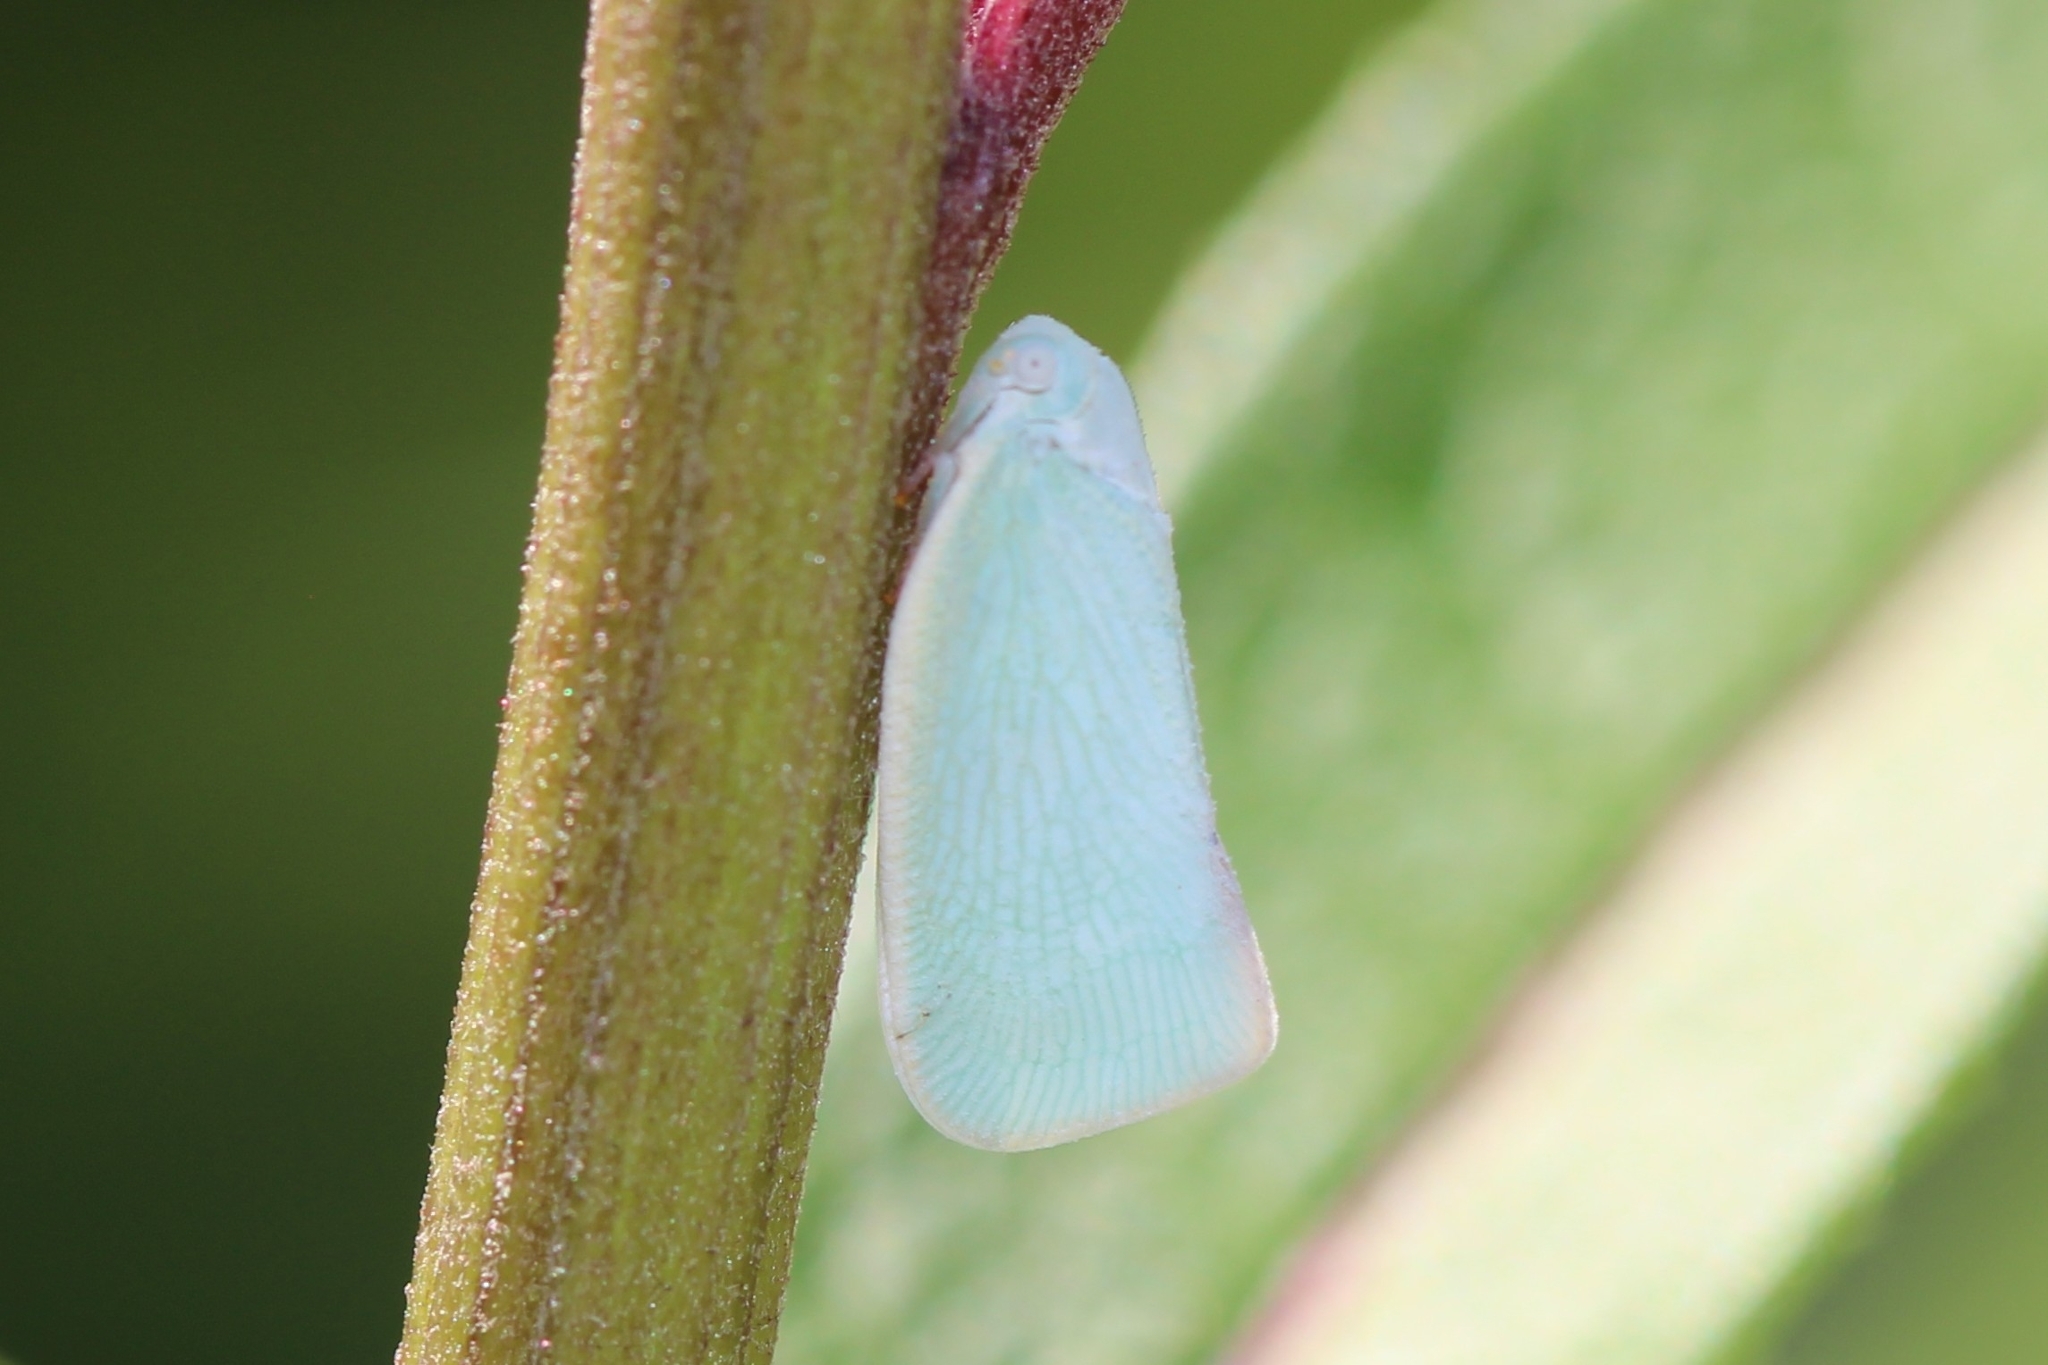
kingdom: Animalia
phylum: Arthropoda
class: Insecta
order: Hemiptera
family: Flatidae
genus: Flatormenis
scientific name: Flatormenis proxima
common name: Northern flatid planthopper
